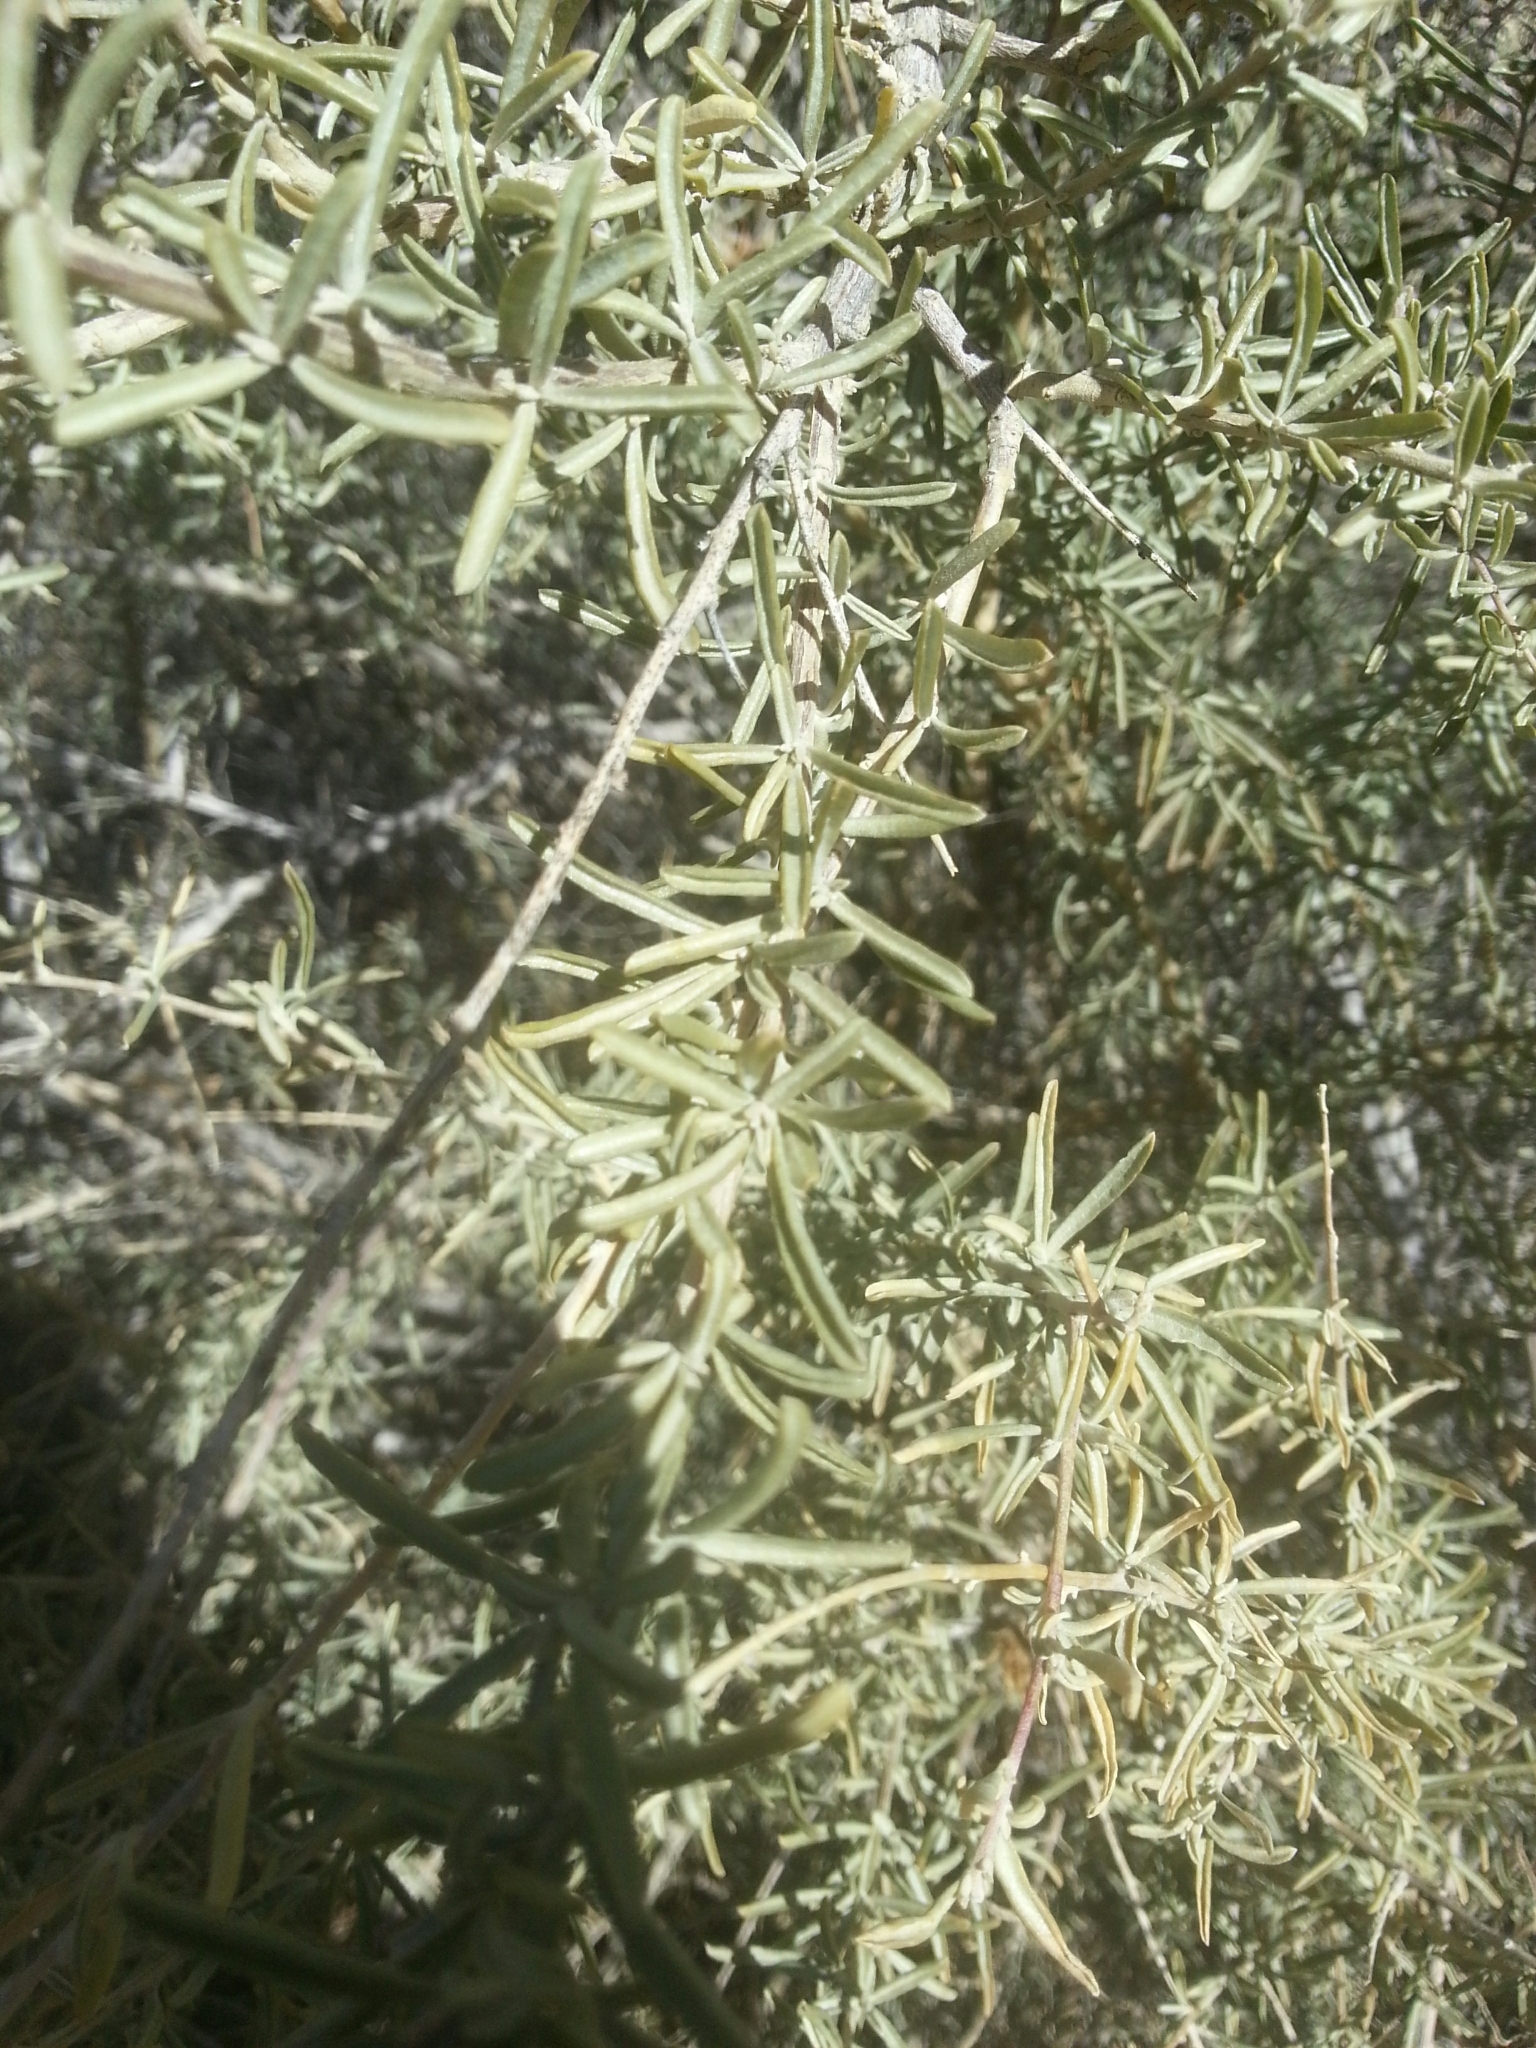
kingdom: Plantae
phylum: Tracheophyta
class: Magnoliopsida
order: Caryophyllales
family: Amaranthaceae
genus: Atriplex
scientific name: Atriplex canescens
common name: Four-wing saltbush
